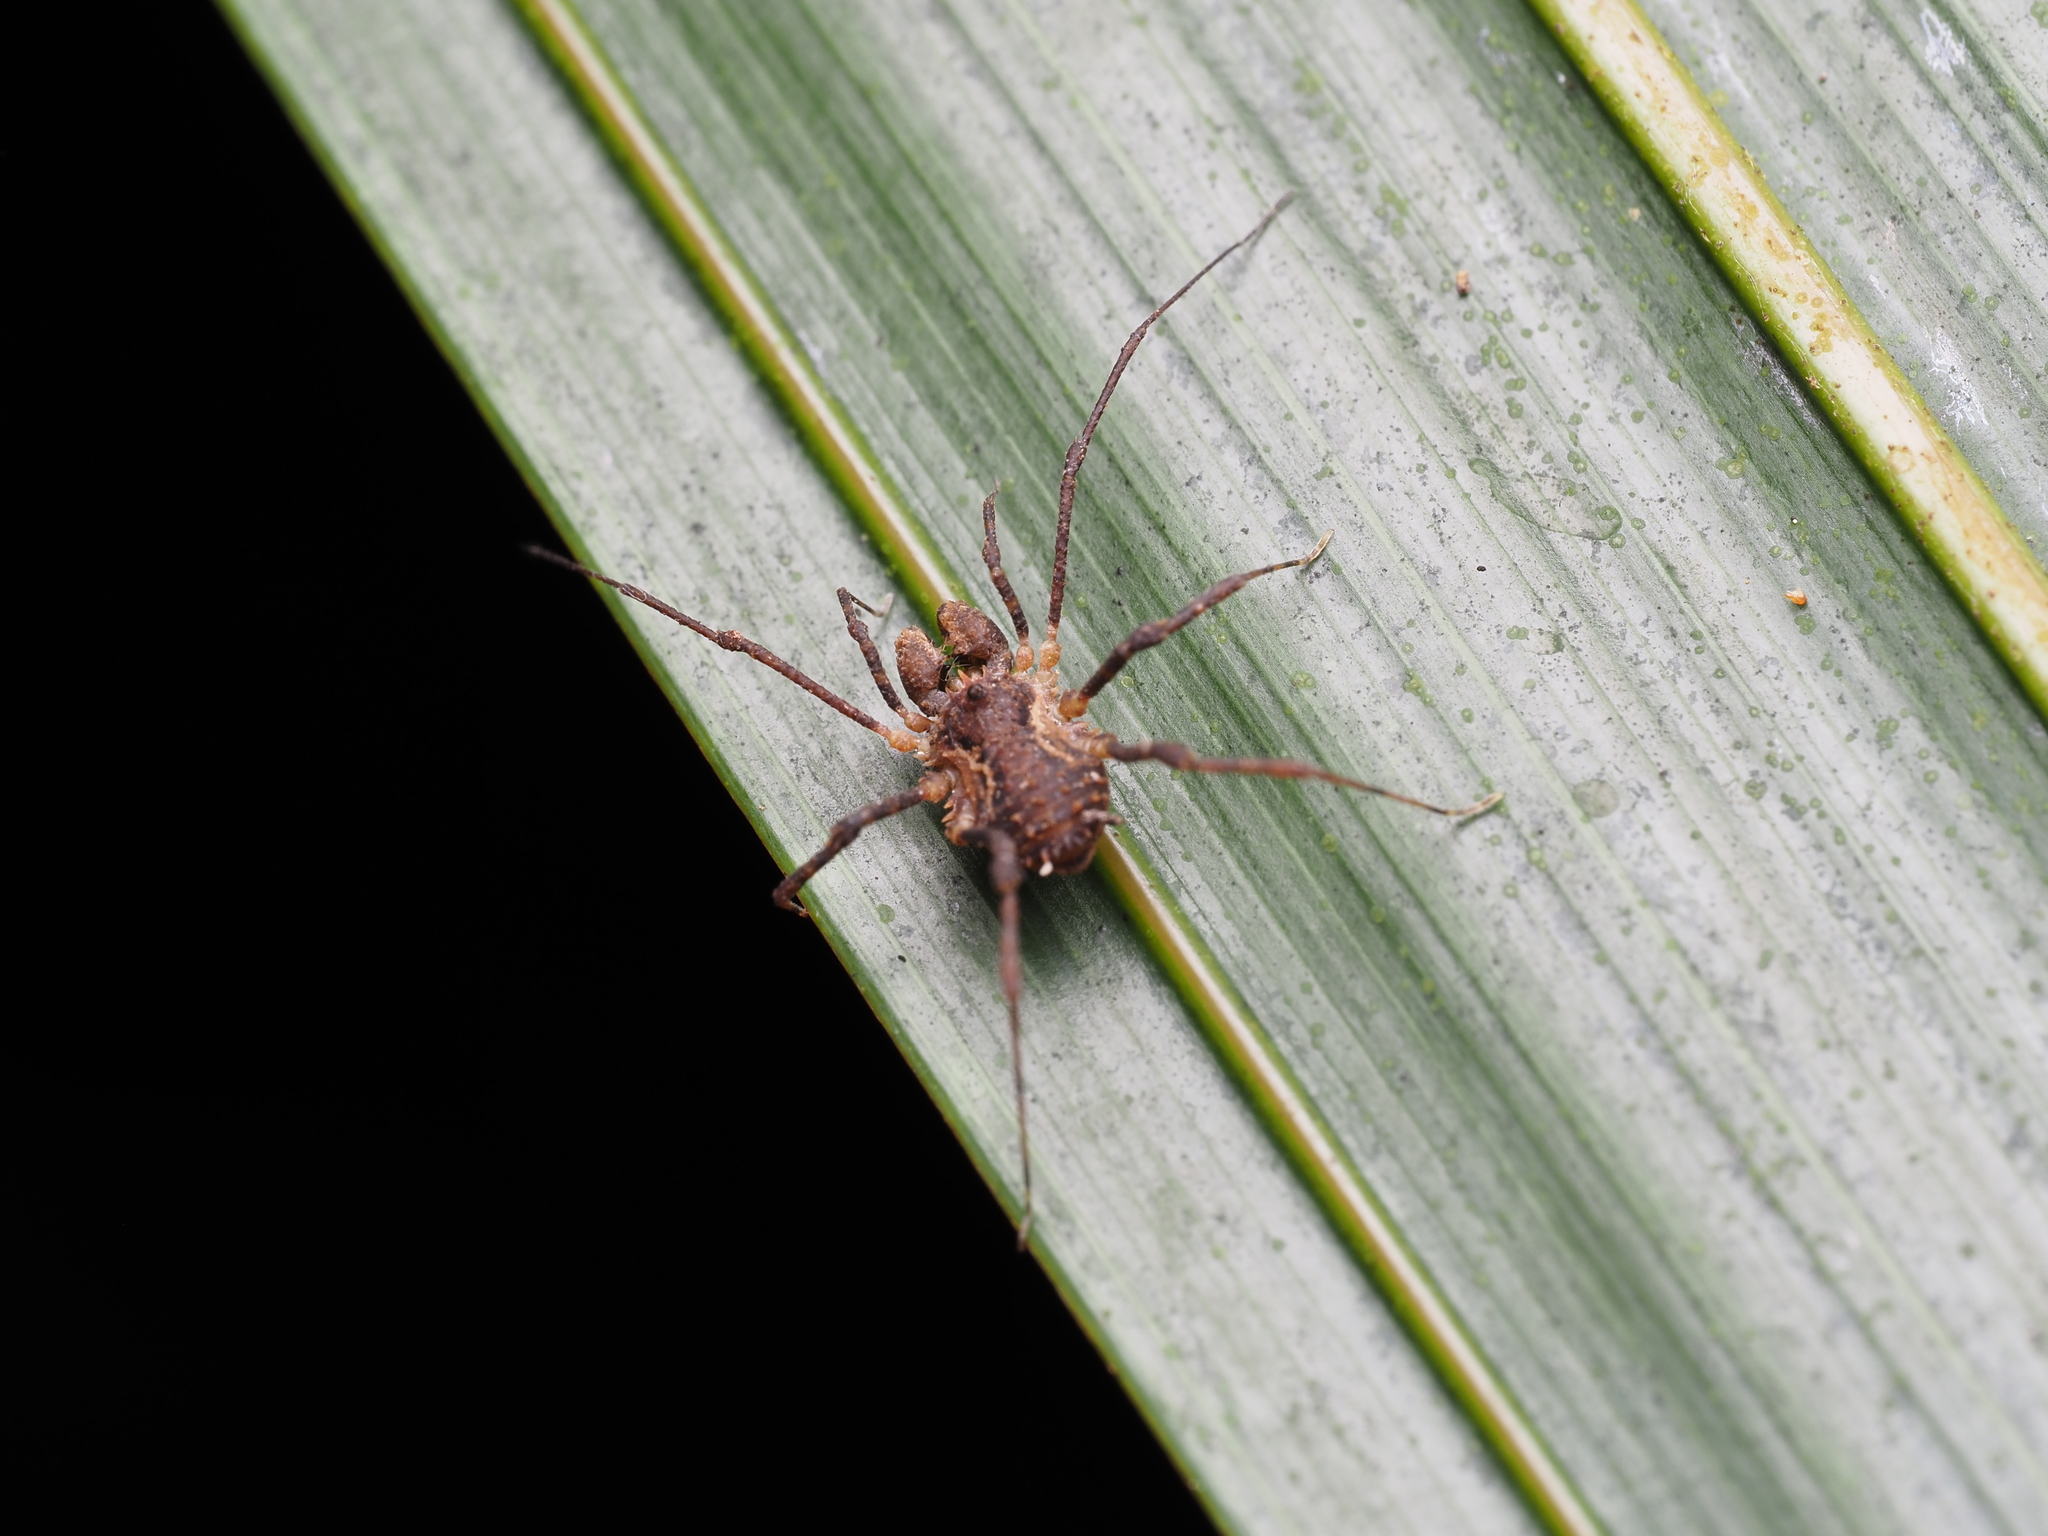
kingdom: Animalia
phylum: Arthropoda
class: Arachnida
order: Opiliones
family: Triaenonychidae
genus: Algidia
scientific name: Algidia nigriflava
